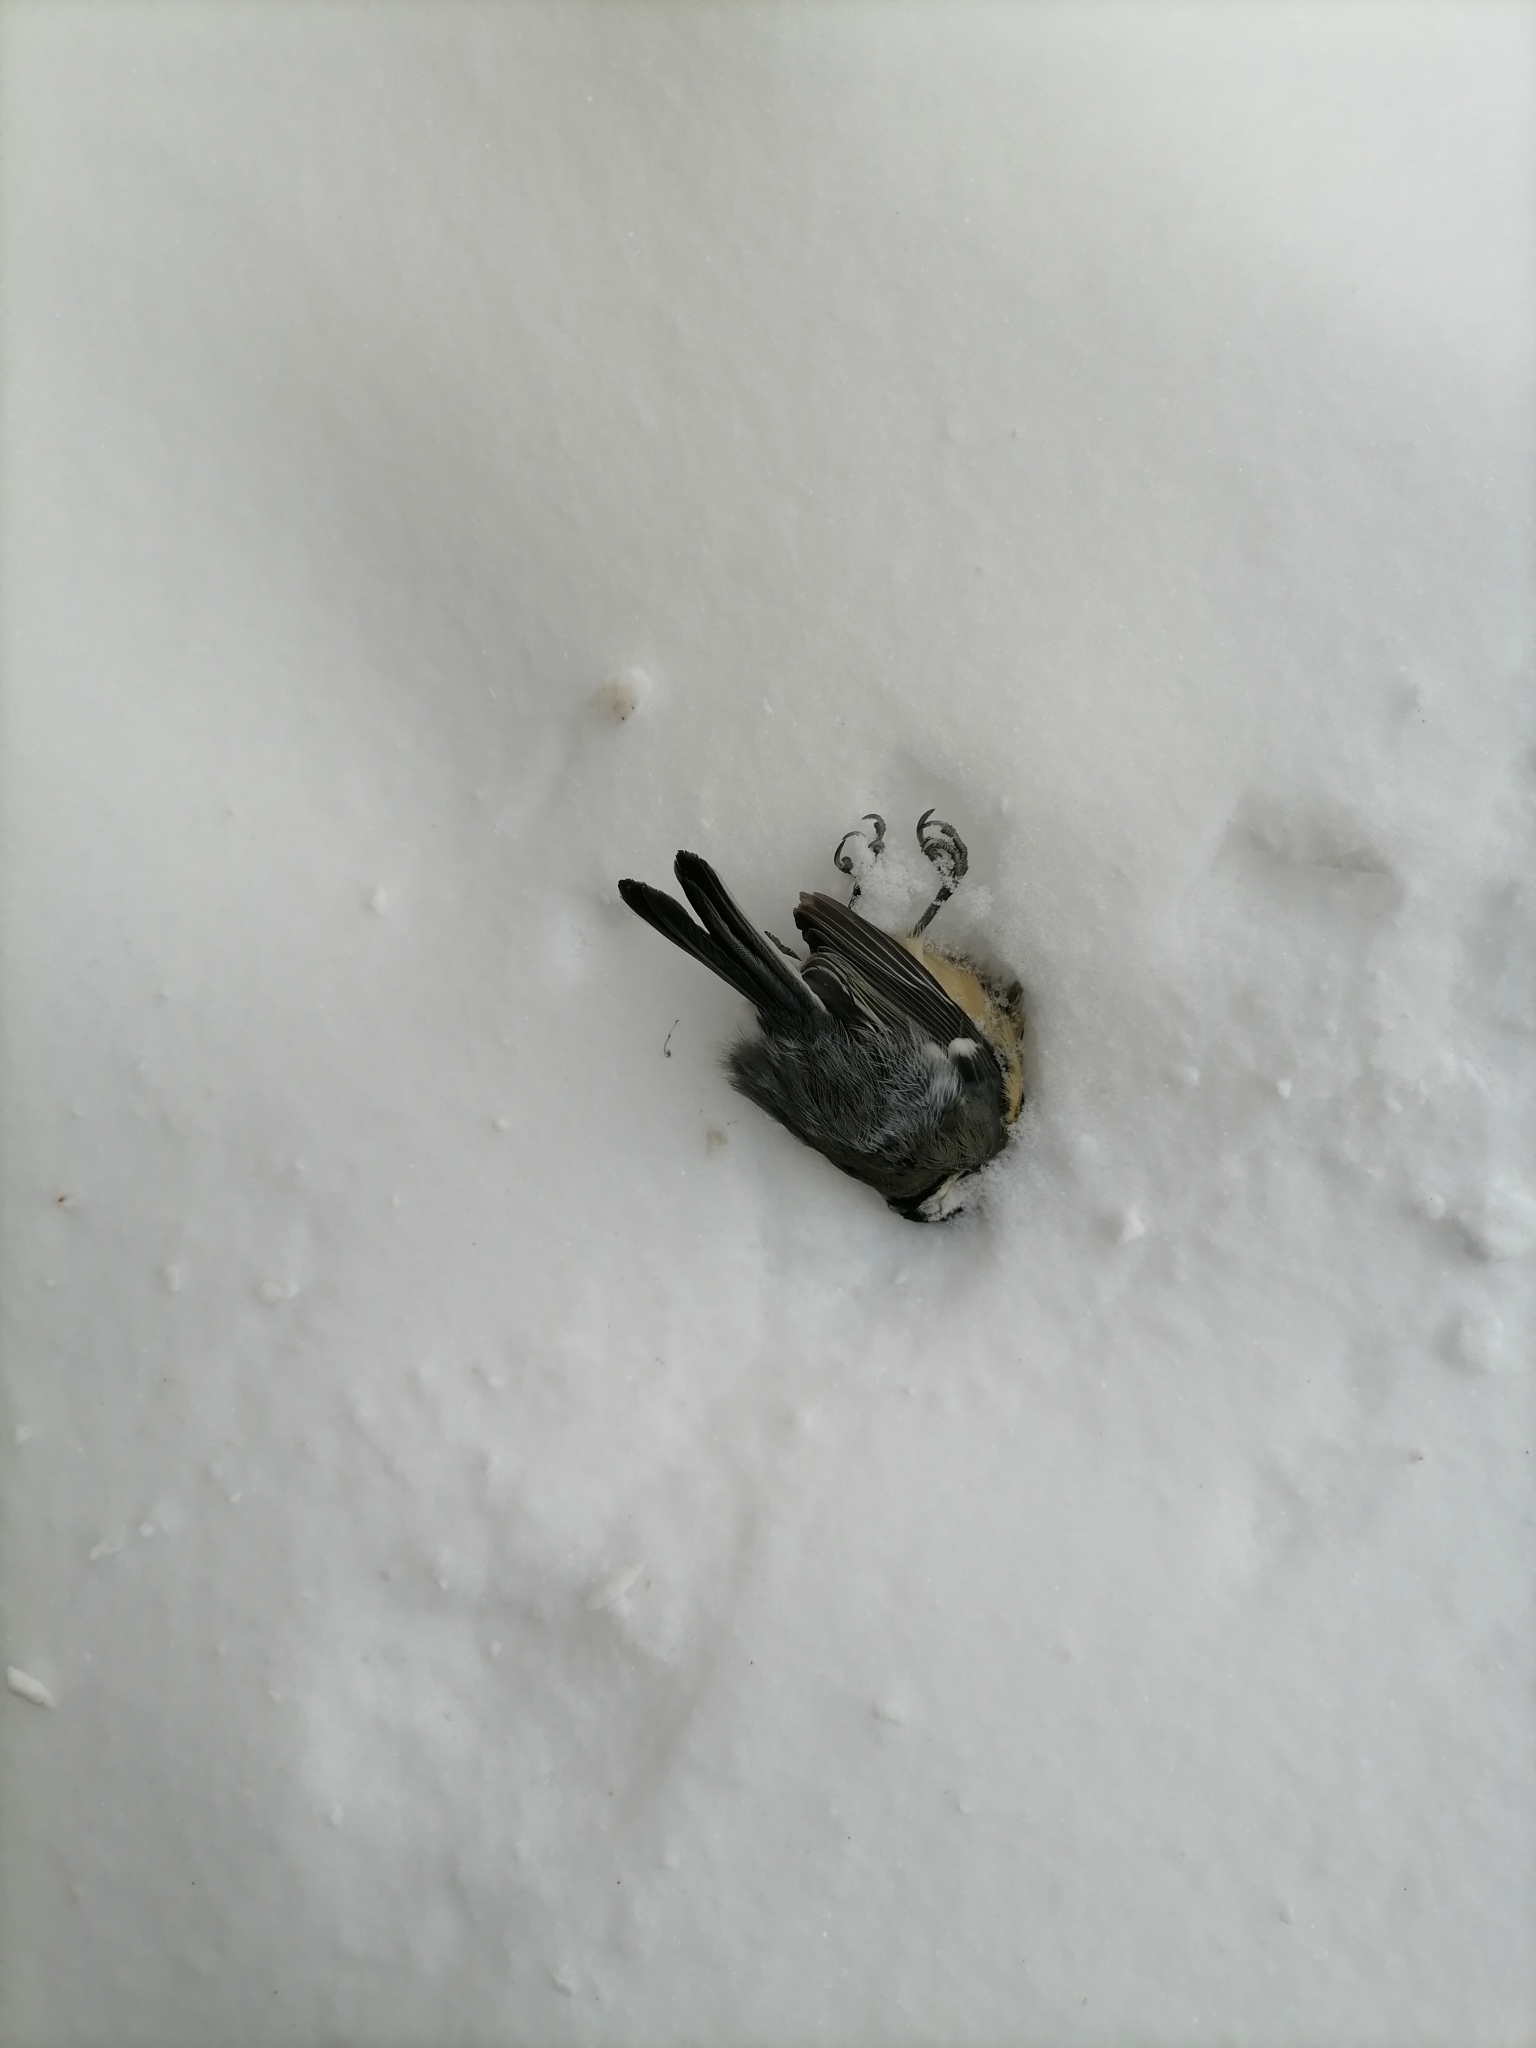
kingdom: Animalia
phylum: Chordata
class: Aves
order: Passeriformes
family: Paridae
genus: Parus
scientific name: Parus major
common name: Great tit
